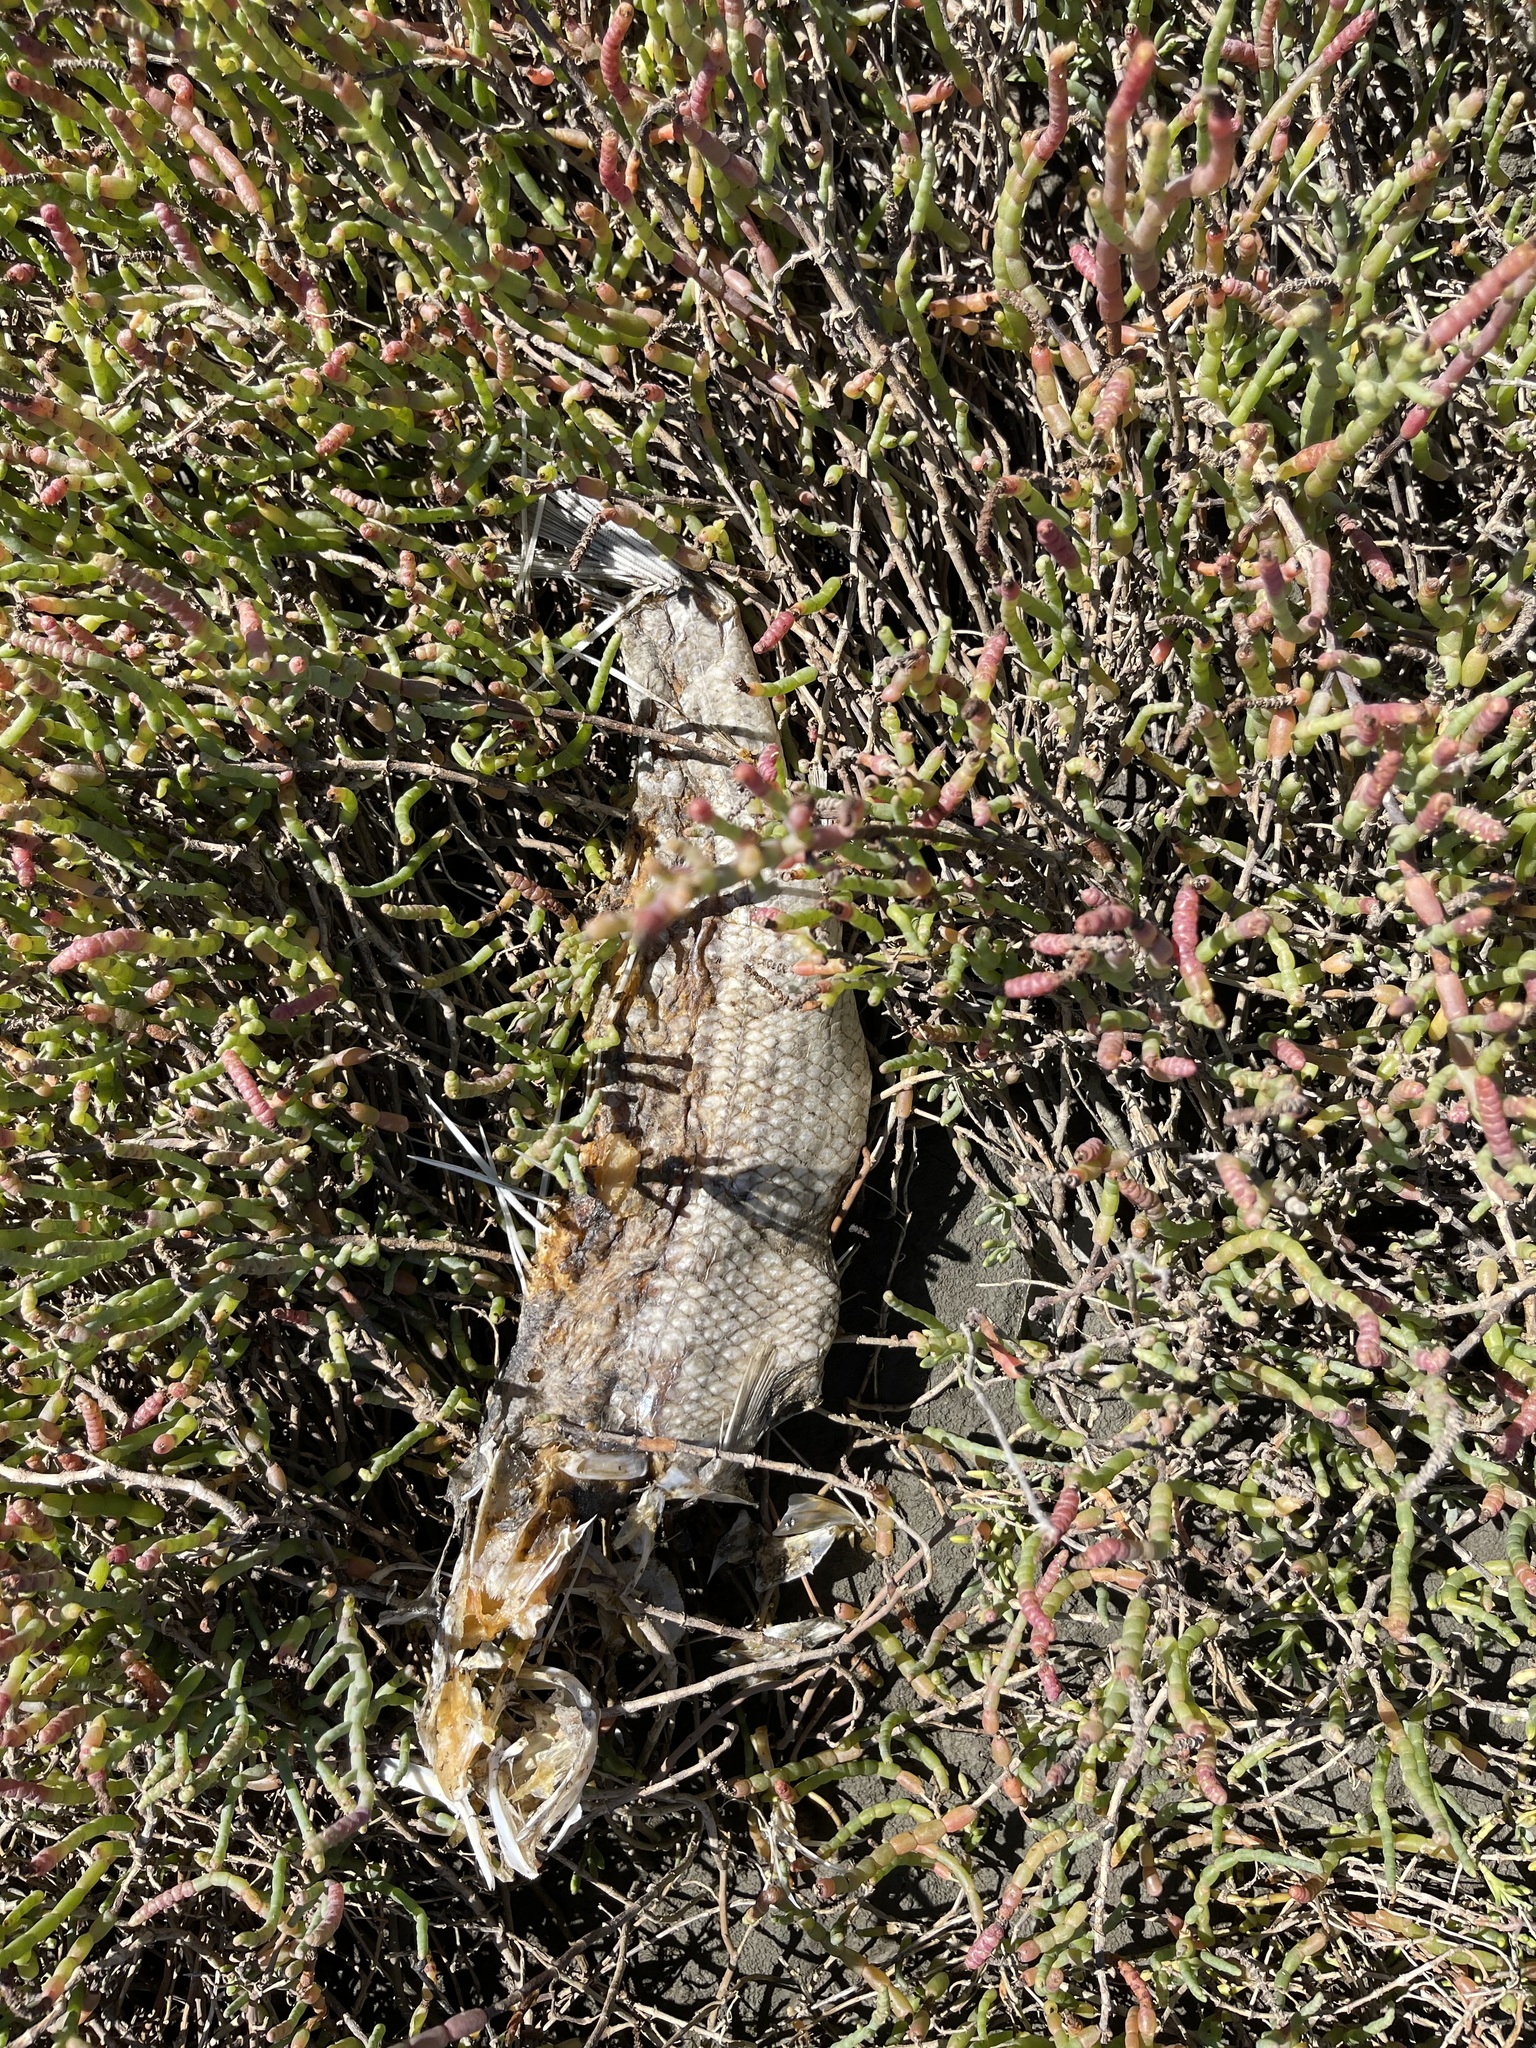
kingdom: Animalia
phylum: Chordata
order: Perciformes
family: Moronidae
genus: Morone
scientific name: Morone saxatilis
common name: Striped bass
